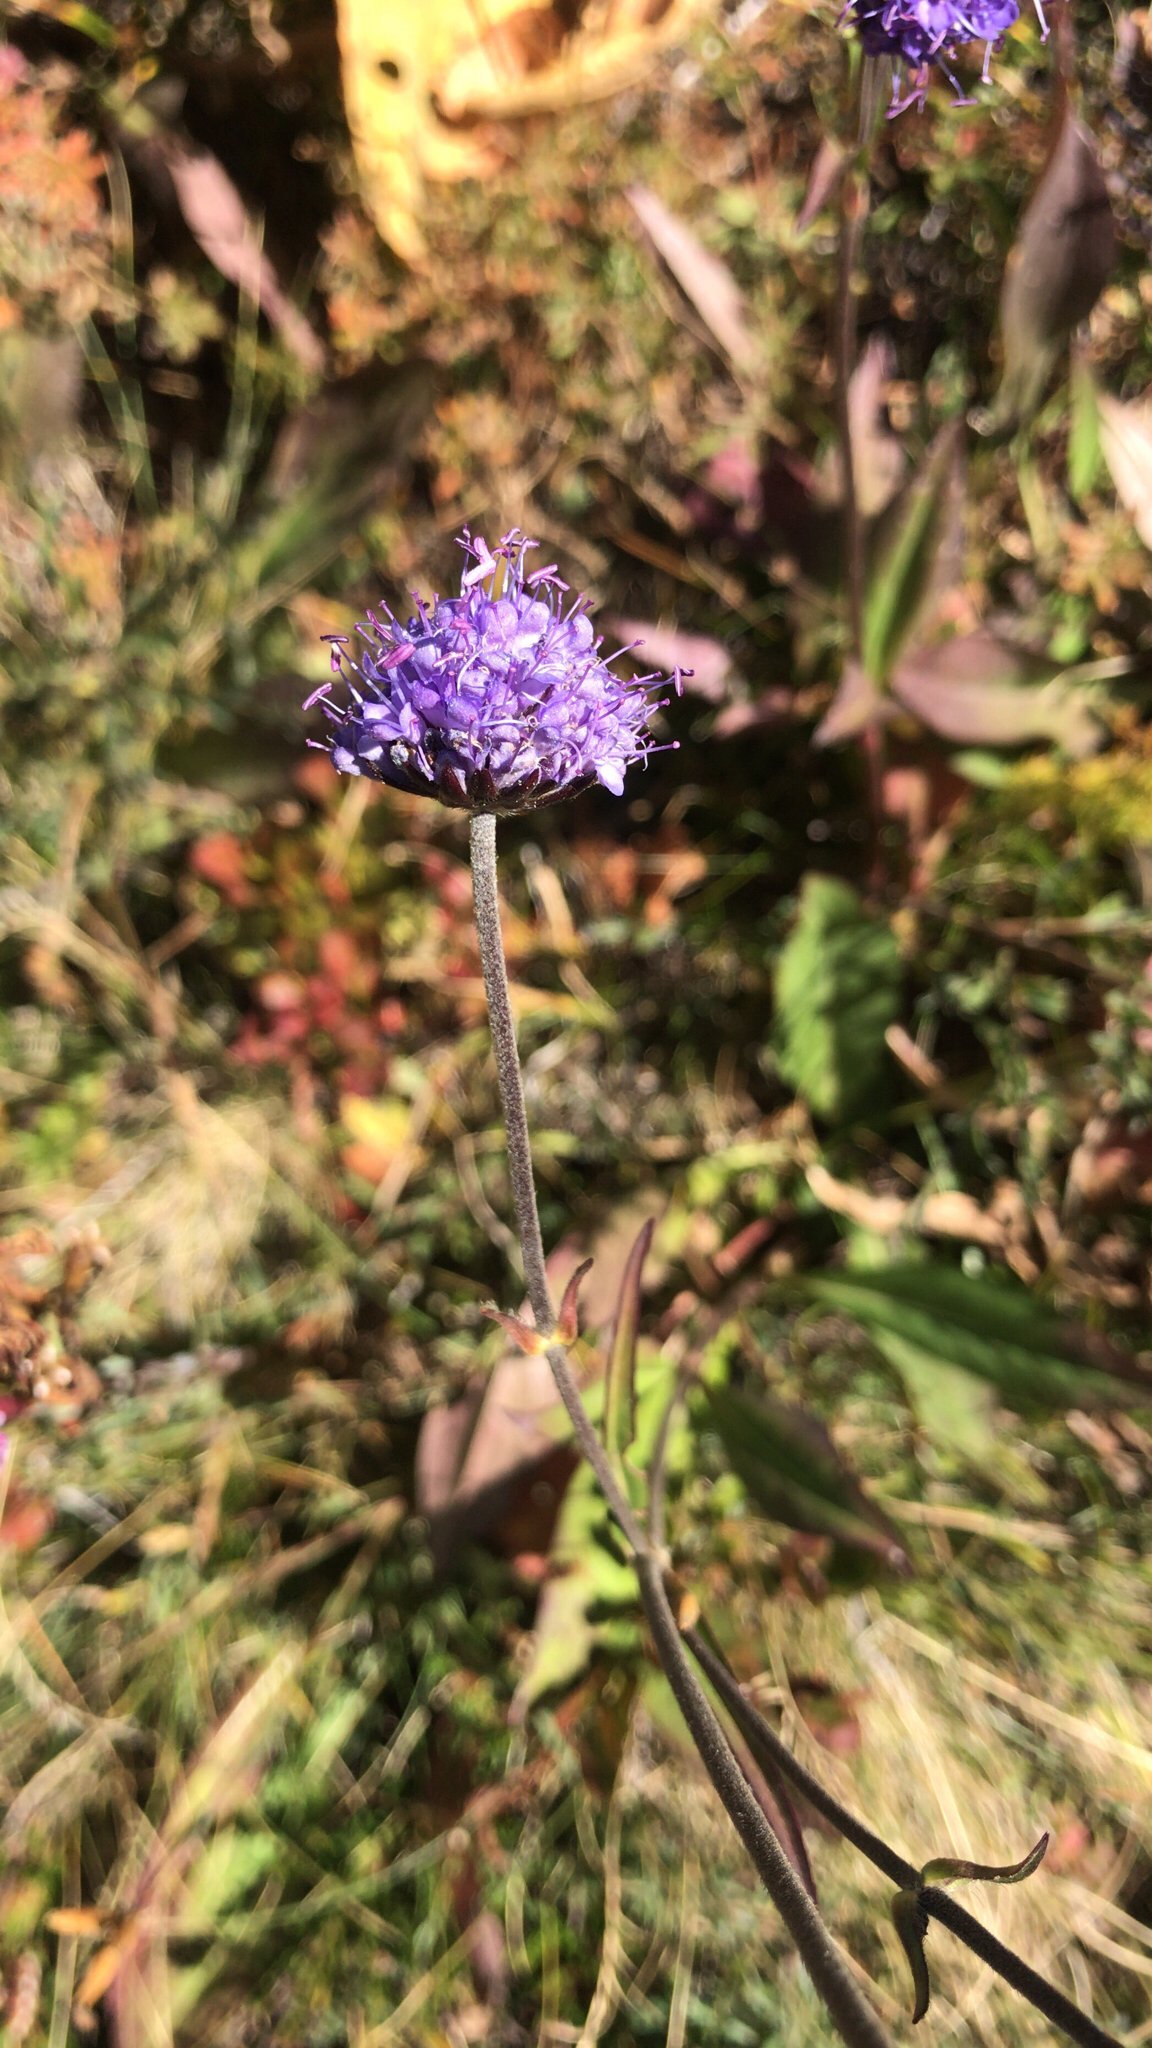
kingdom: Plantae
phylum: Tracheophyta
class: Magnoliopsida
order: Dipsacales
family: Caprifoliaceae
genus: Succisa
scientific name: Succisa pratensis
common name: Devil's-bit
